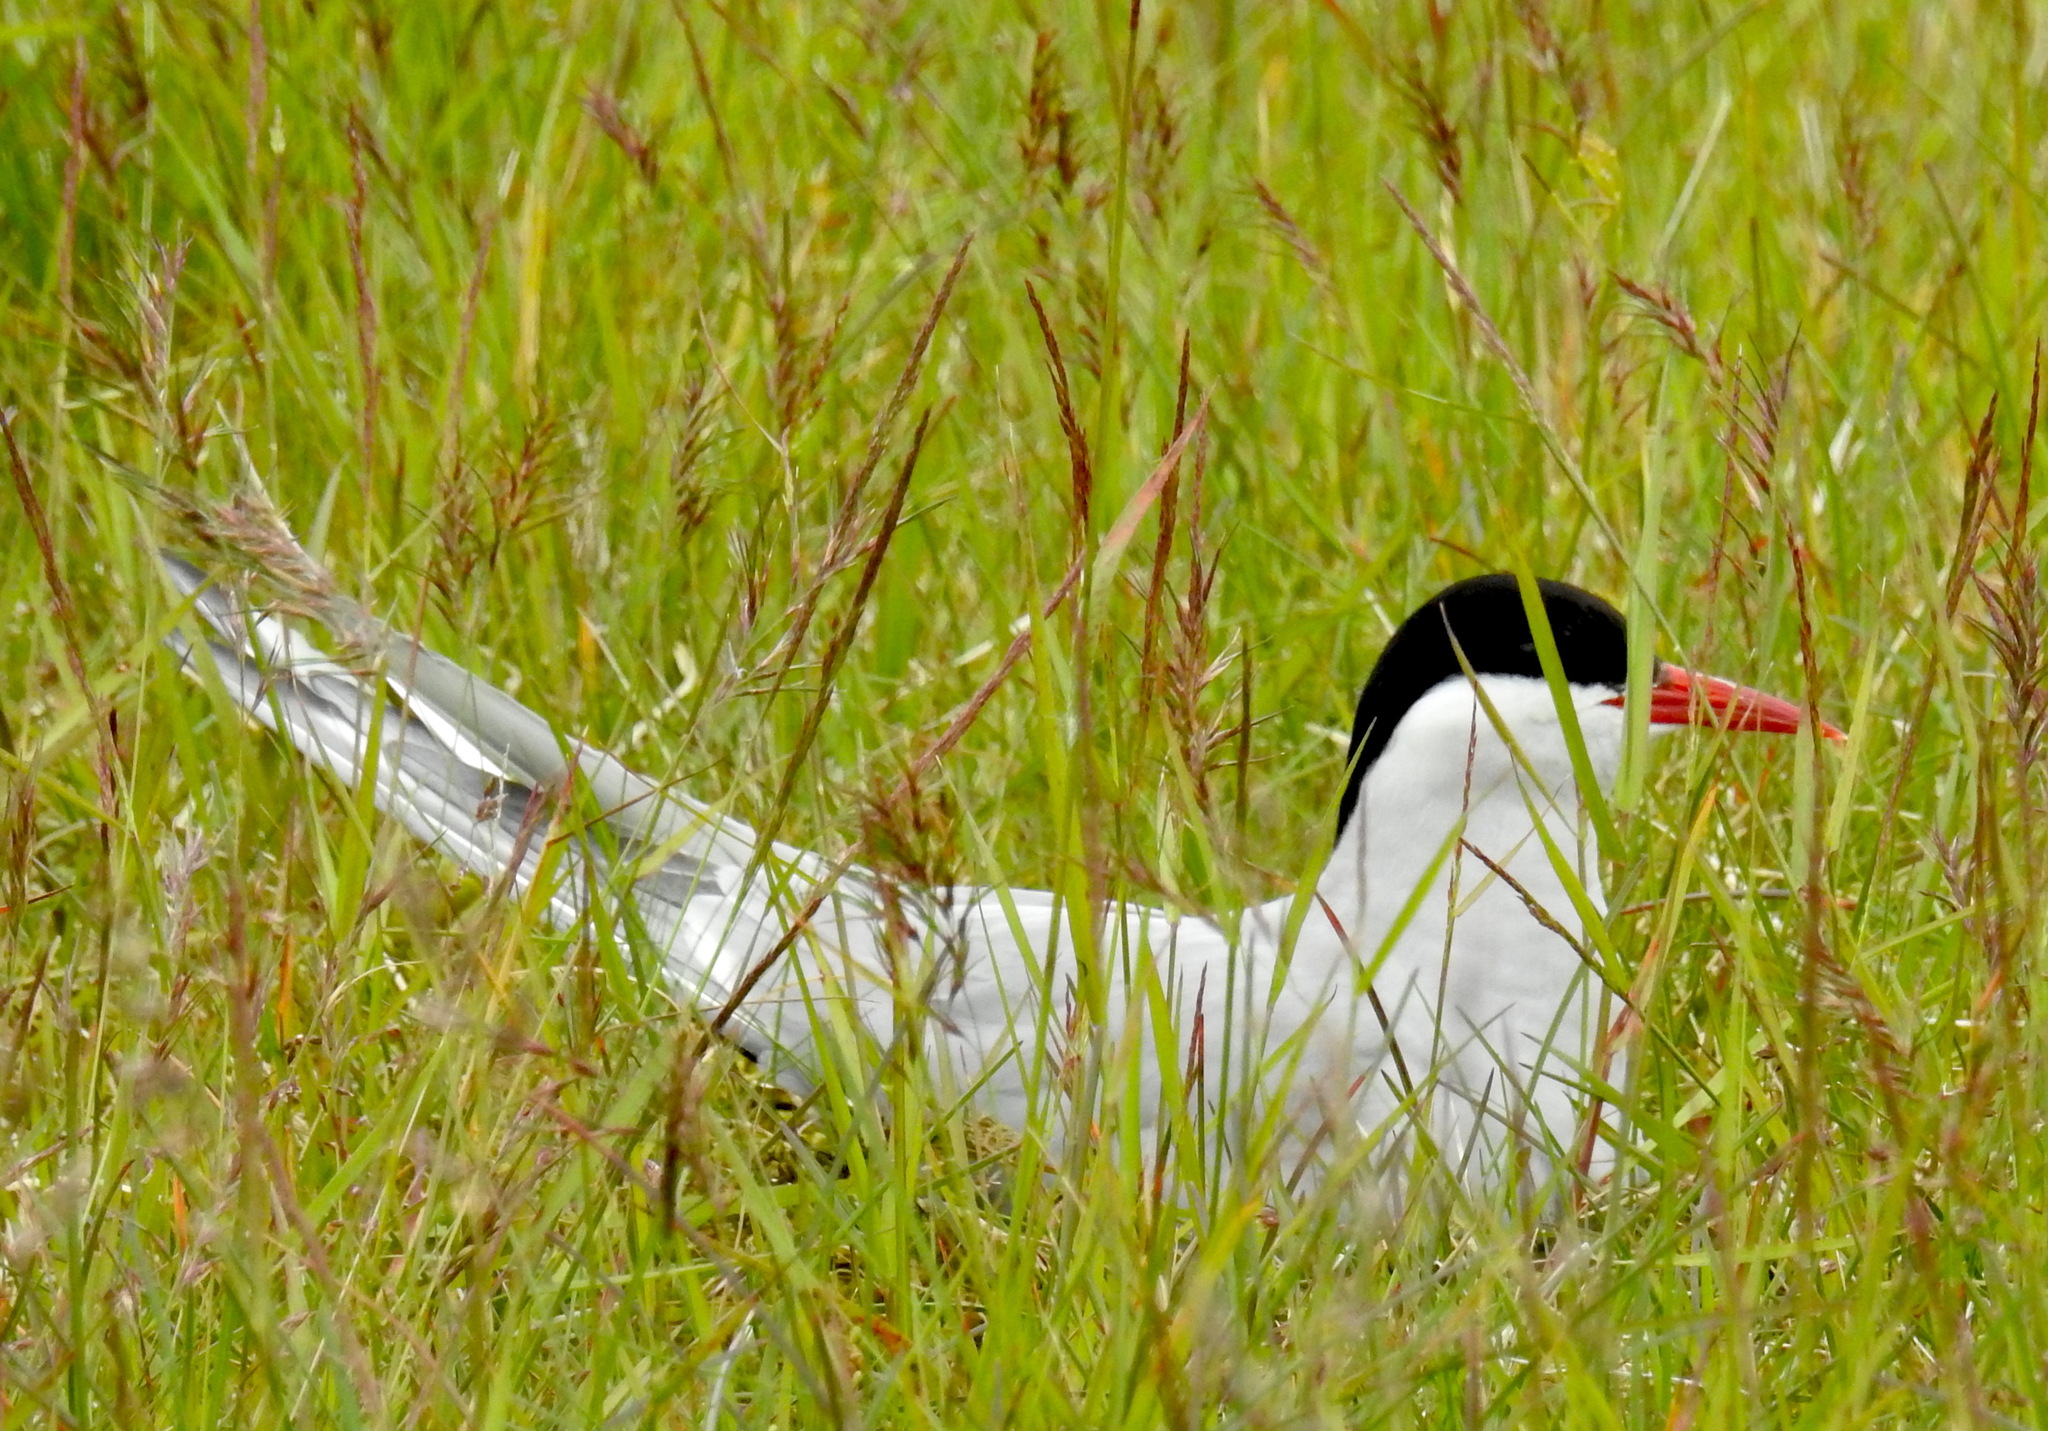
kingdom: Animalia
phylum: Chordata
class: Aves
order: Charadriiformes
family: Laridae
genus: Sterna
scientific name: Sterna paradisaea
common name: Arctic tern
